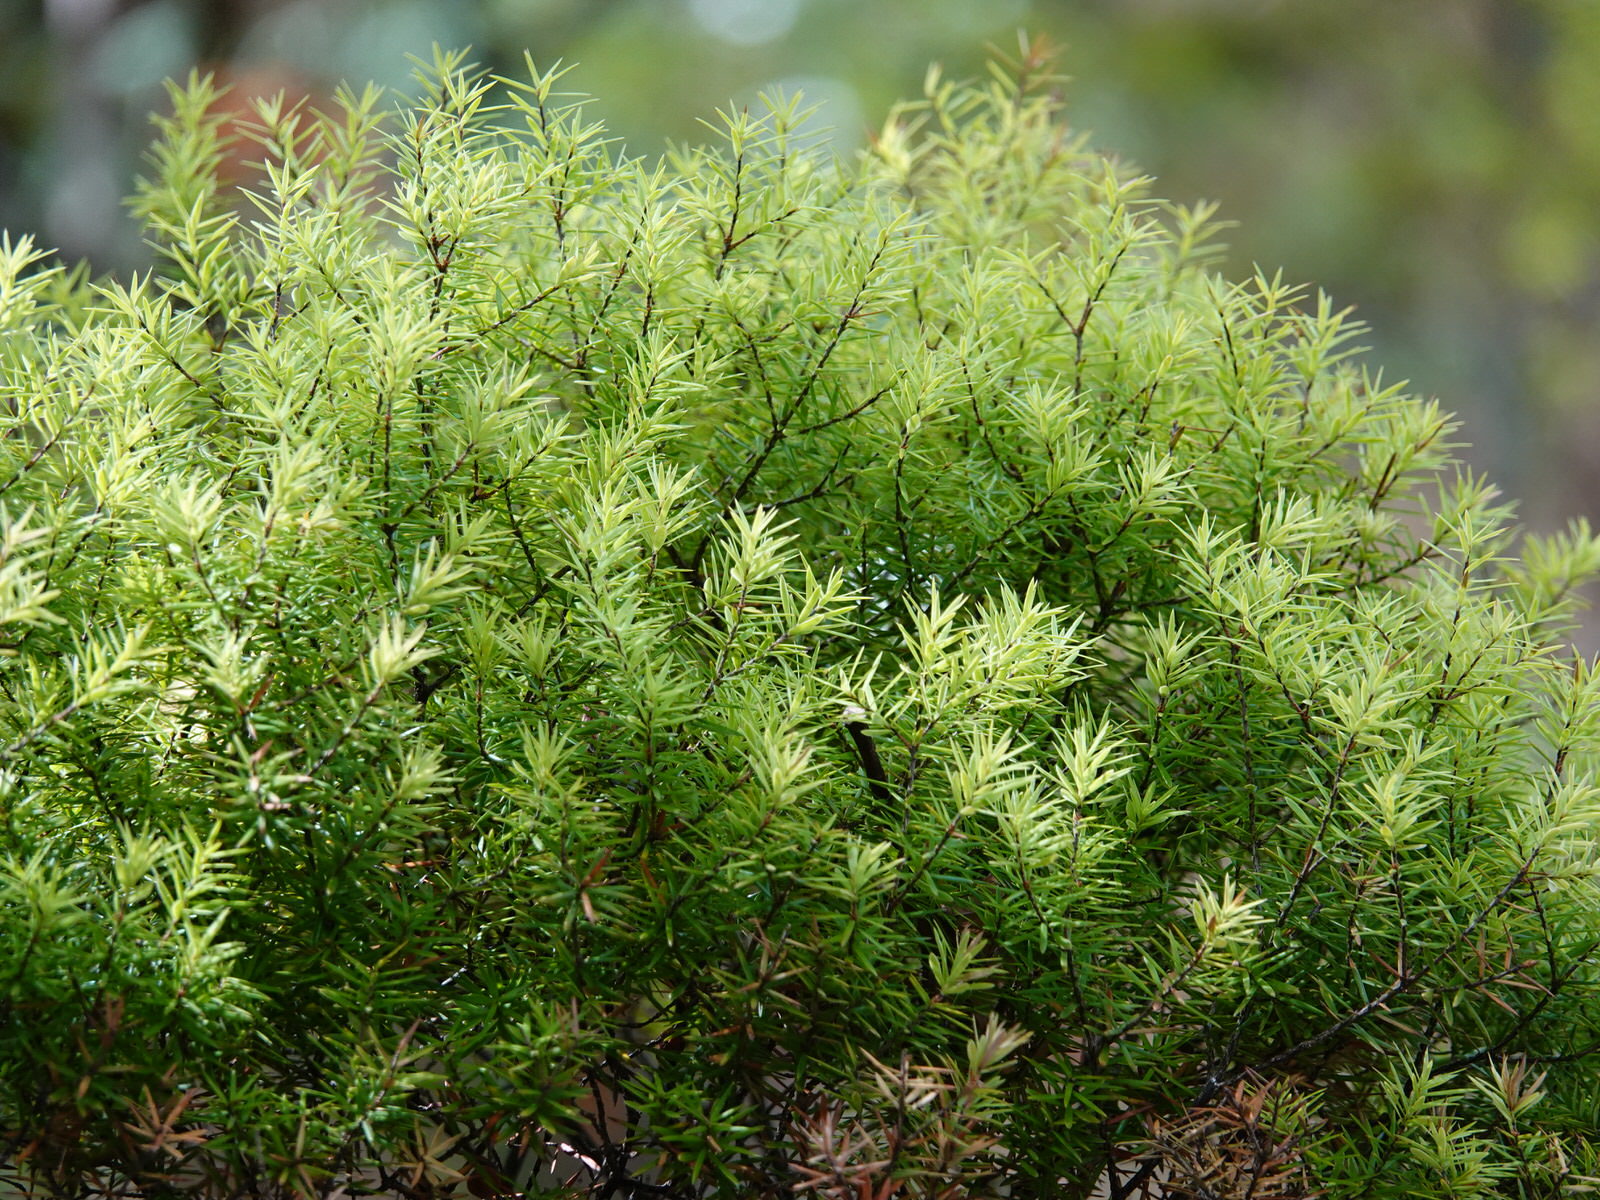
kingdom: Plantae
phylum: Tracheophyta
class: Magnoliopsida
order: Ericales
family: Ericaceae
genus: Leptecophylla
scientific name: Leptecophylla juniperina
